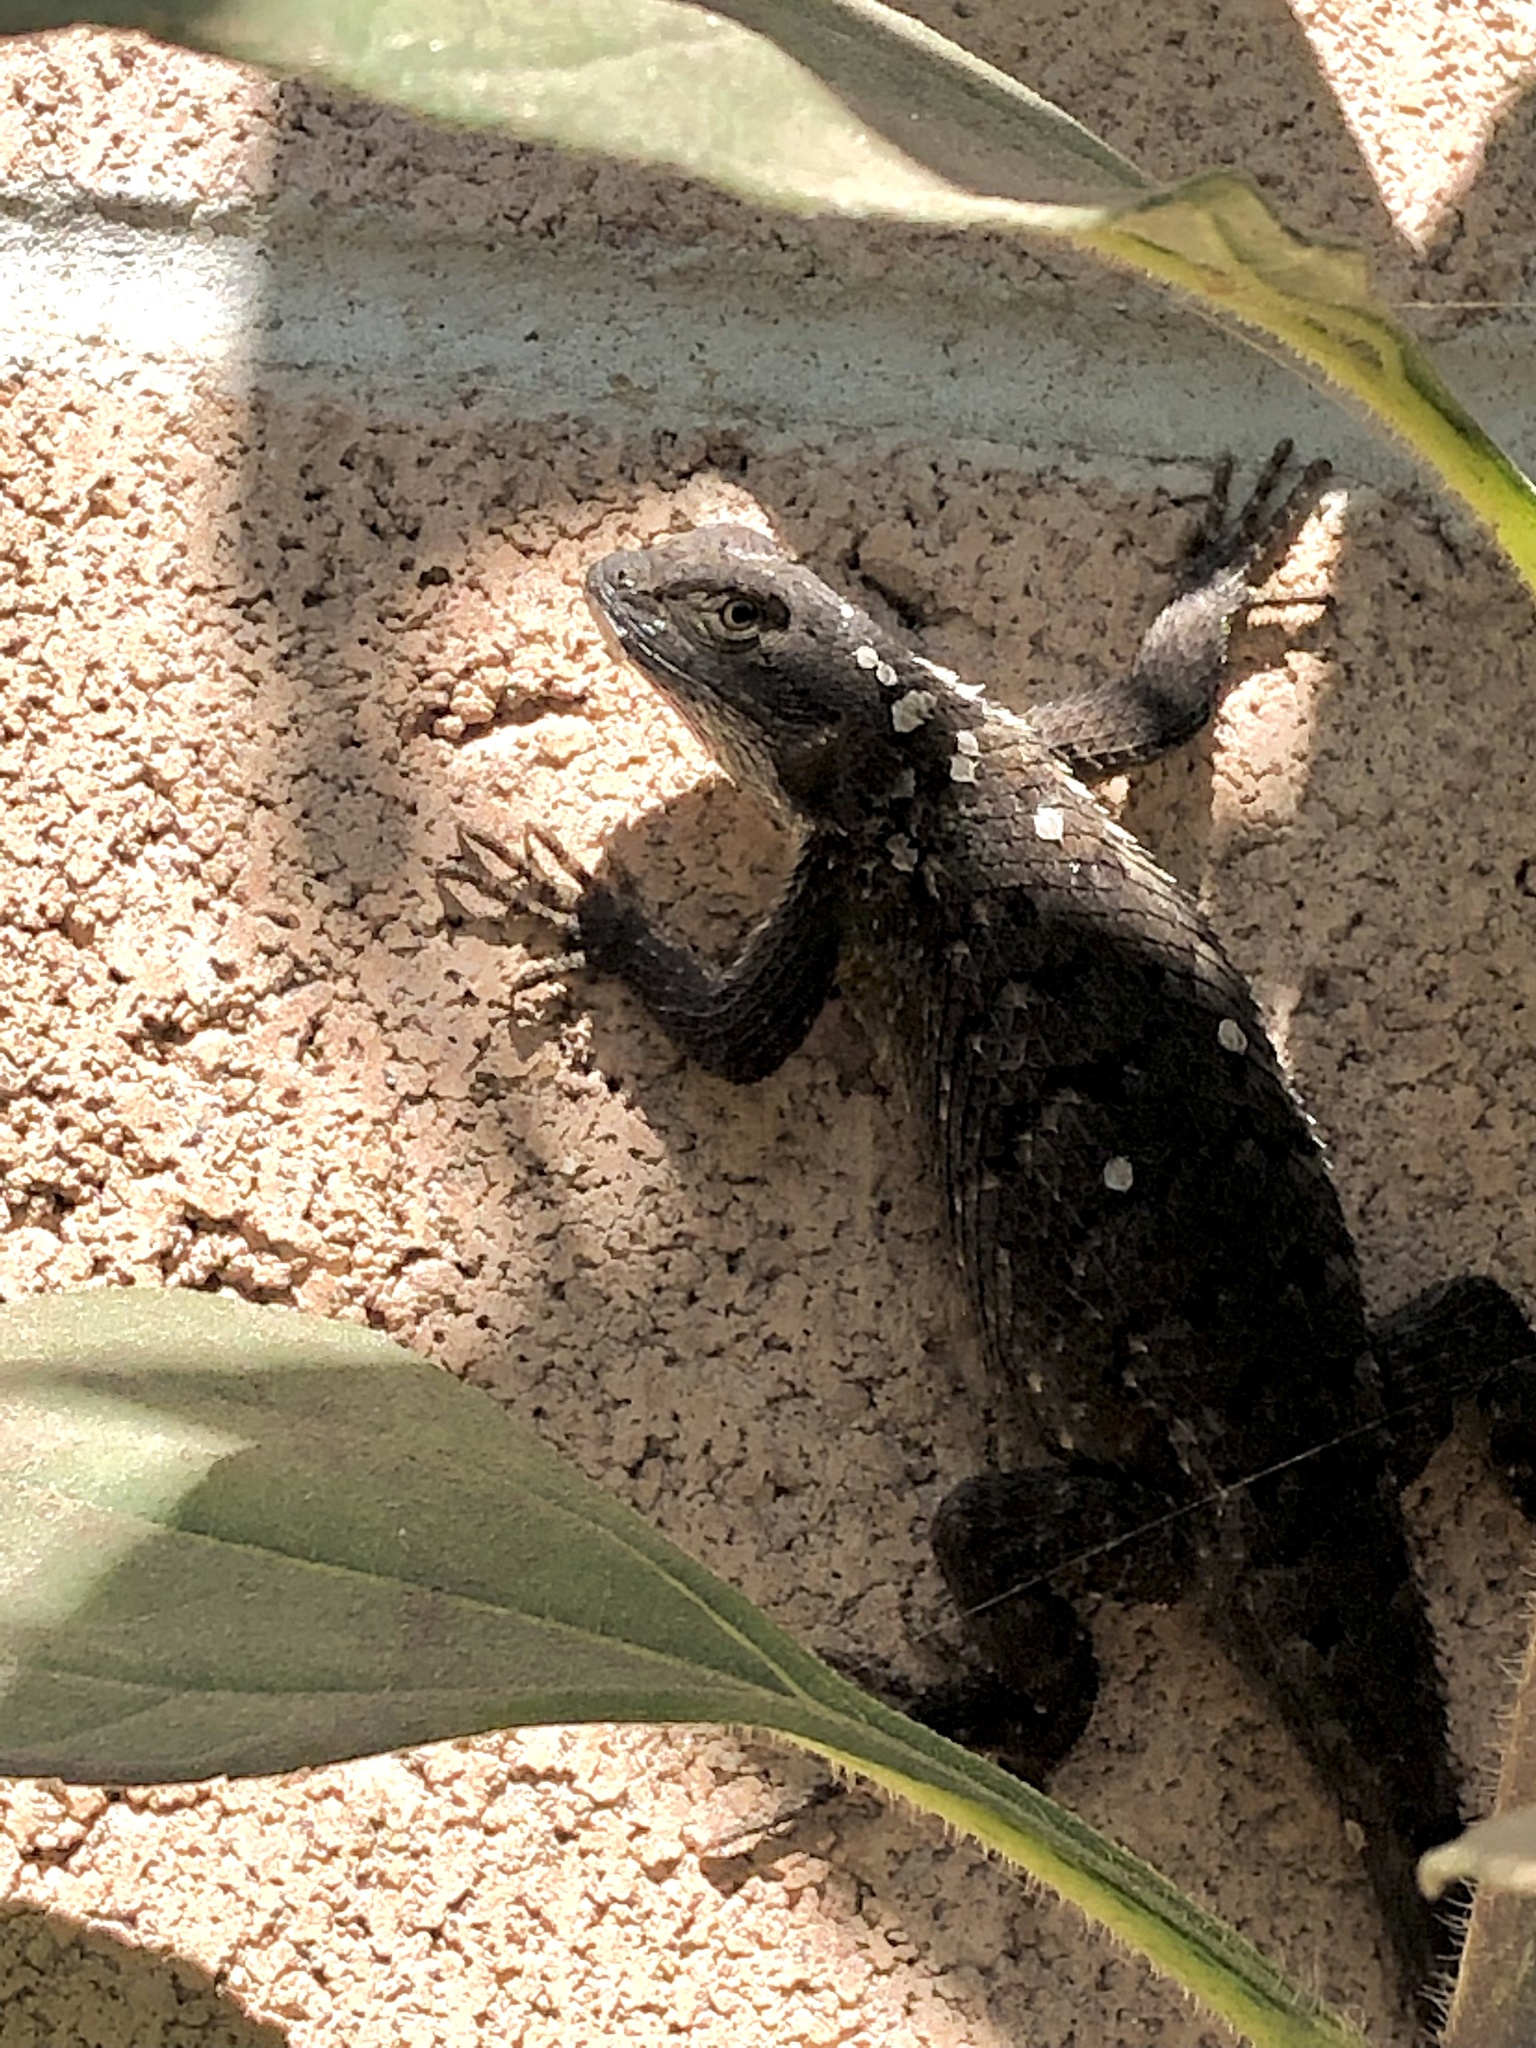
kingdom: Animalia
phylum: Chordata
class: Squamata
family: Phrynosomatidae
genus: Sceloporus
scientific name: Sceloporus occidentalis
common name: Western fence lizard
